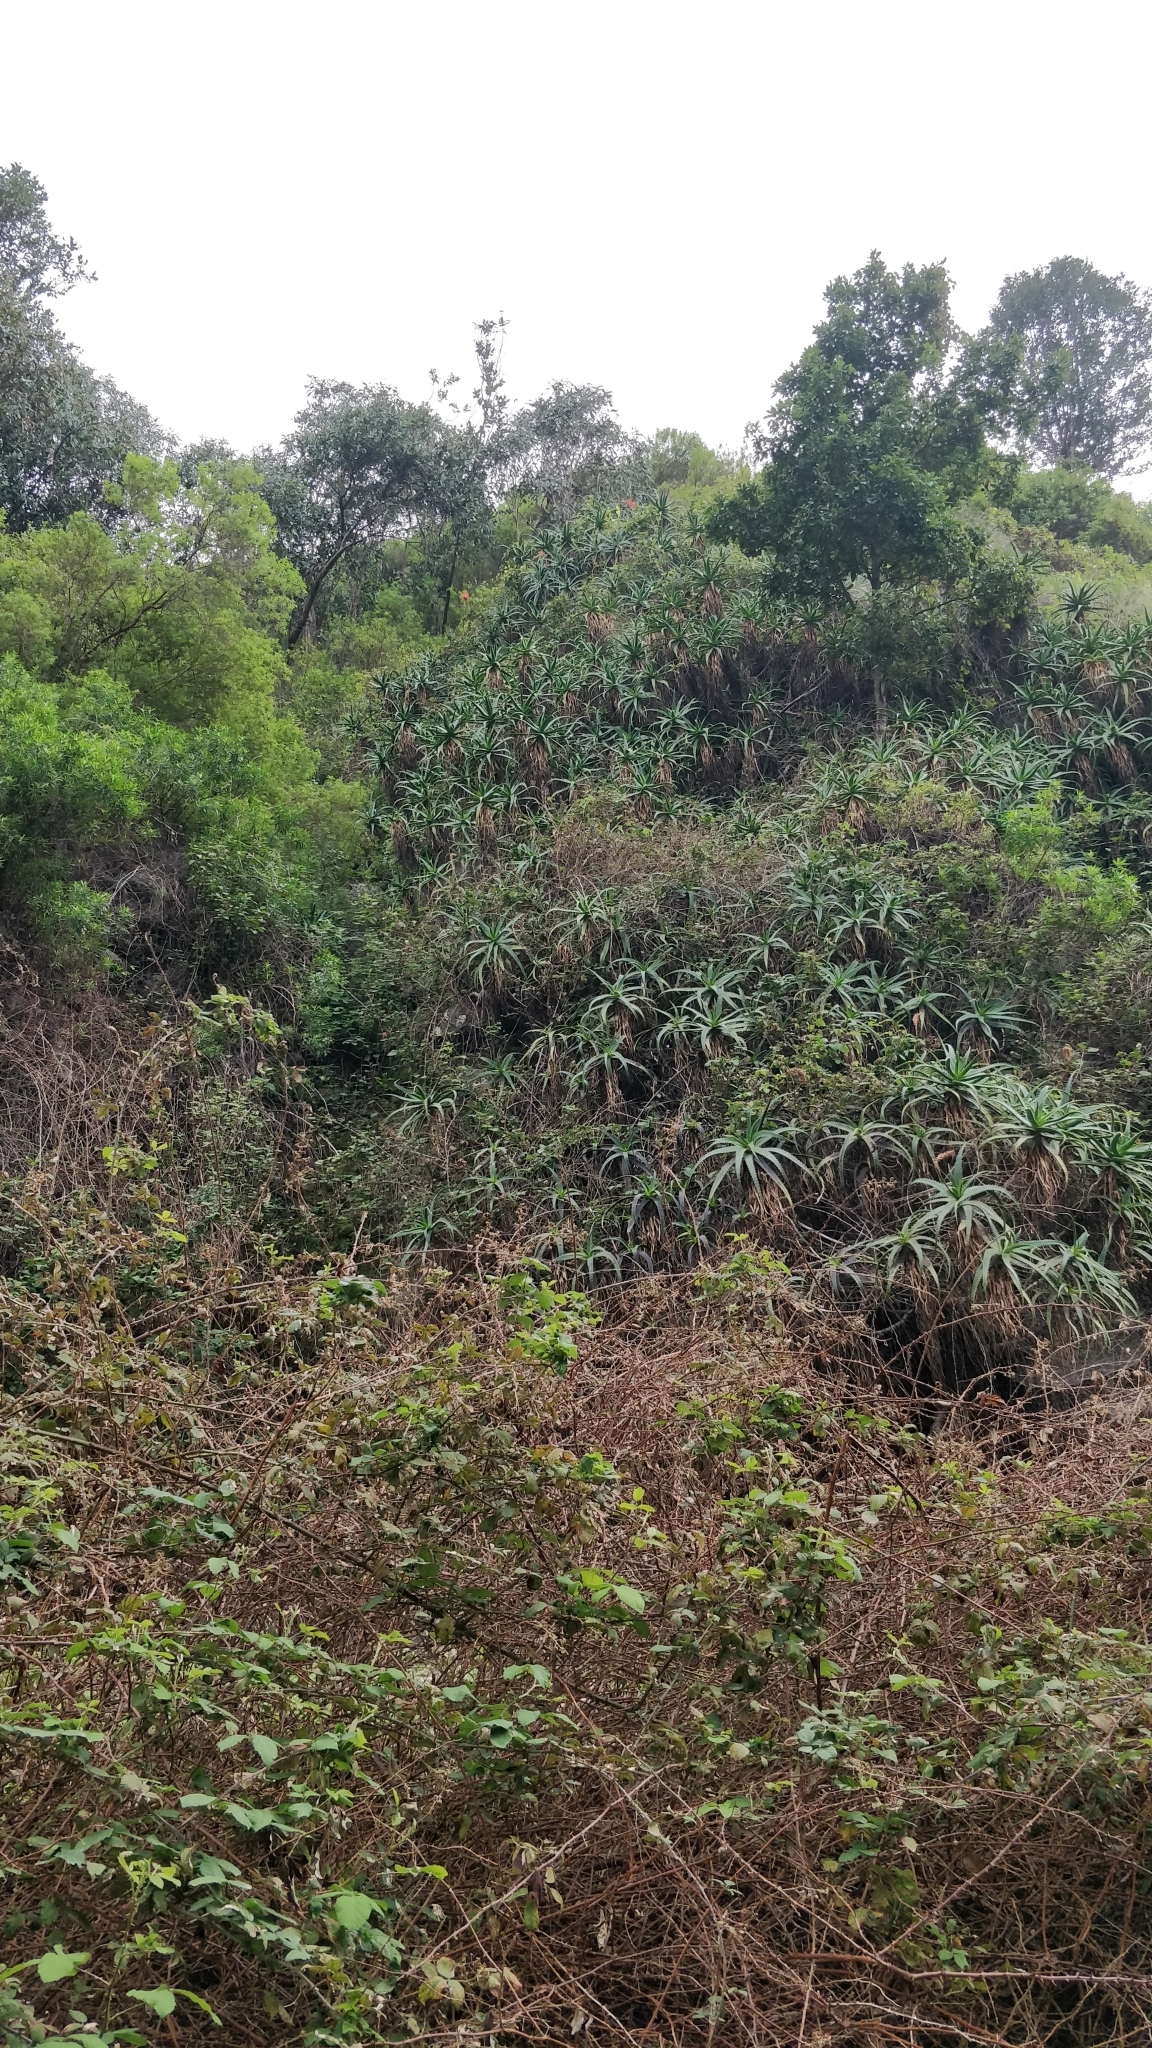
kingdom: Plantae
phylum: Tracheophyta
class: Liliopsida
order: Asparagales
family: Asphodelaceae
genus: Aloe
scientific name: Aloe arborescens
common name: Candelabra aloe
